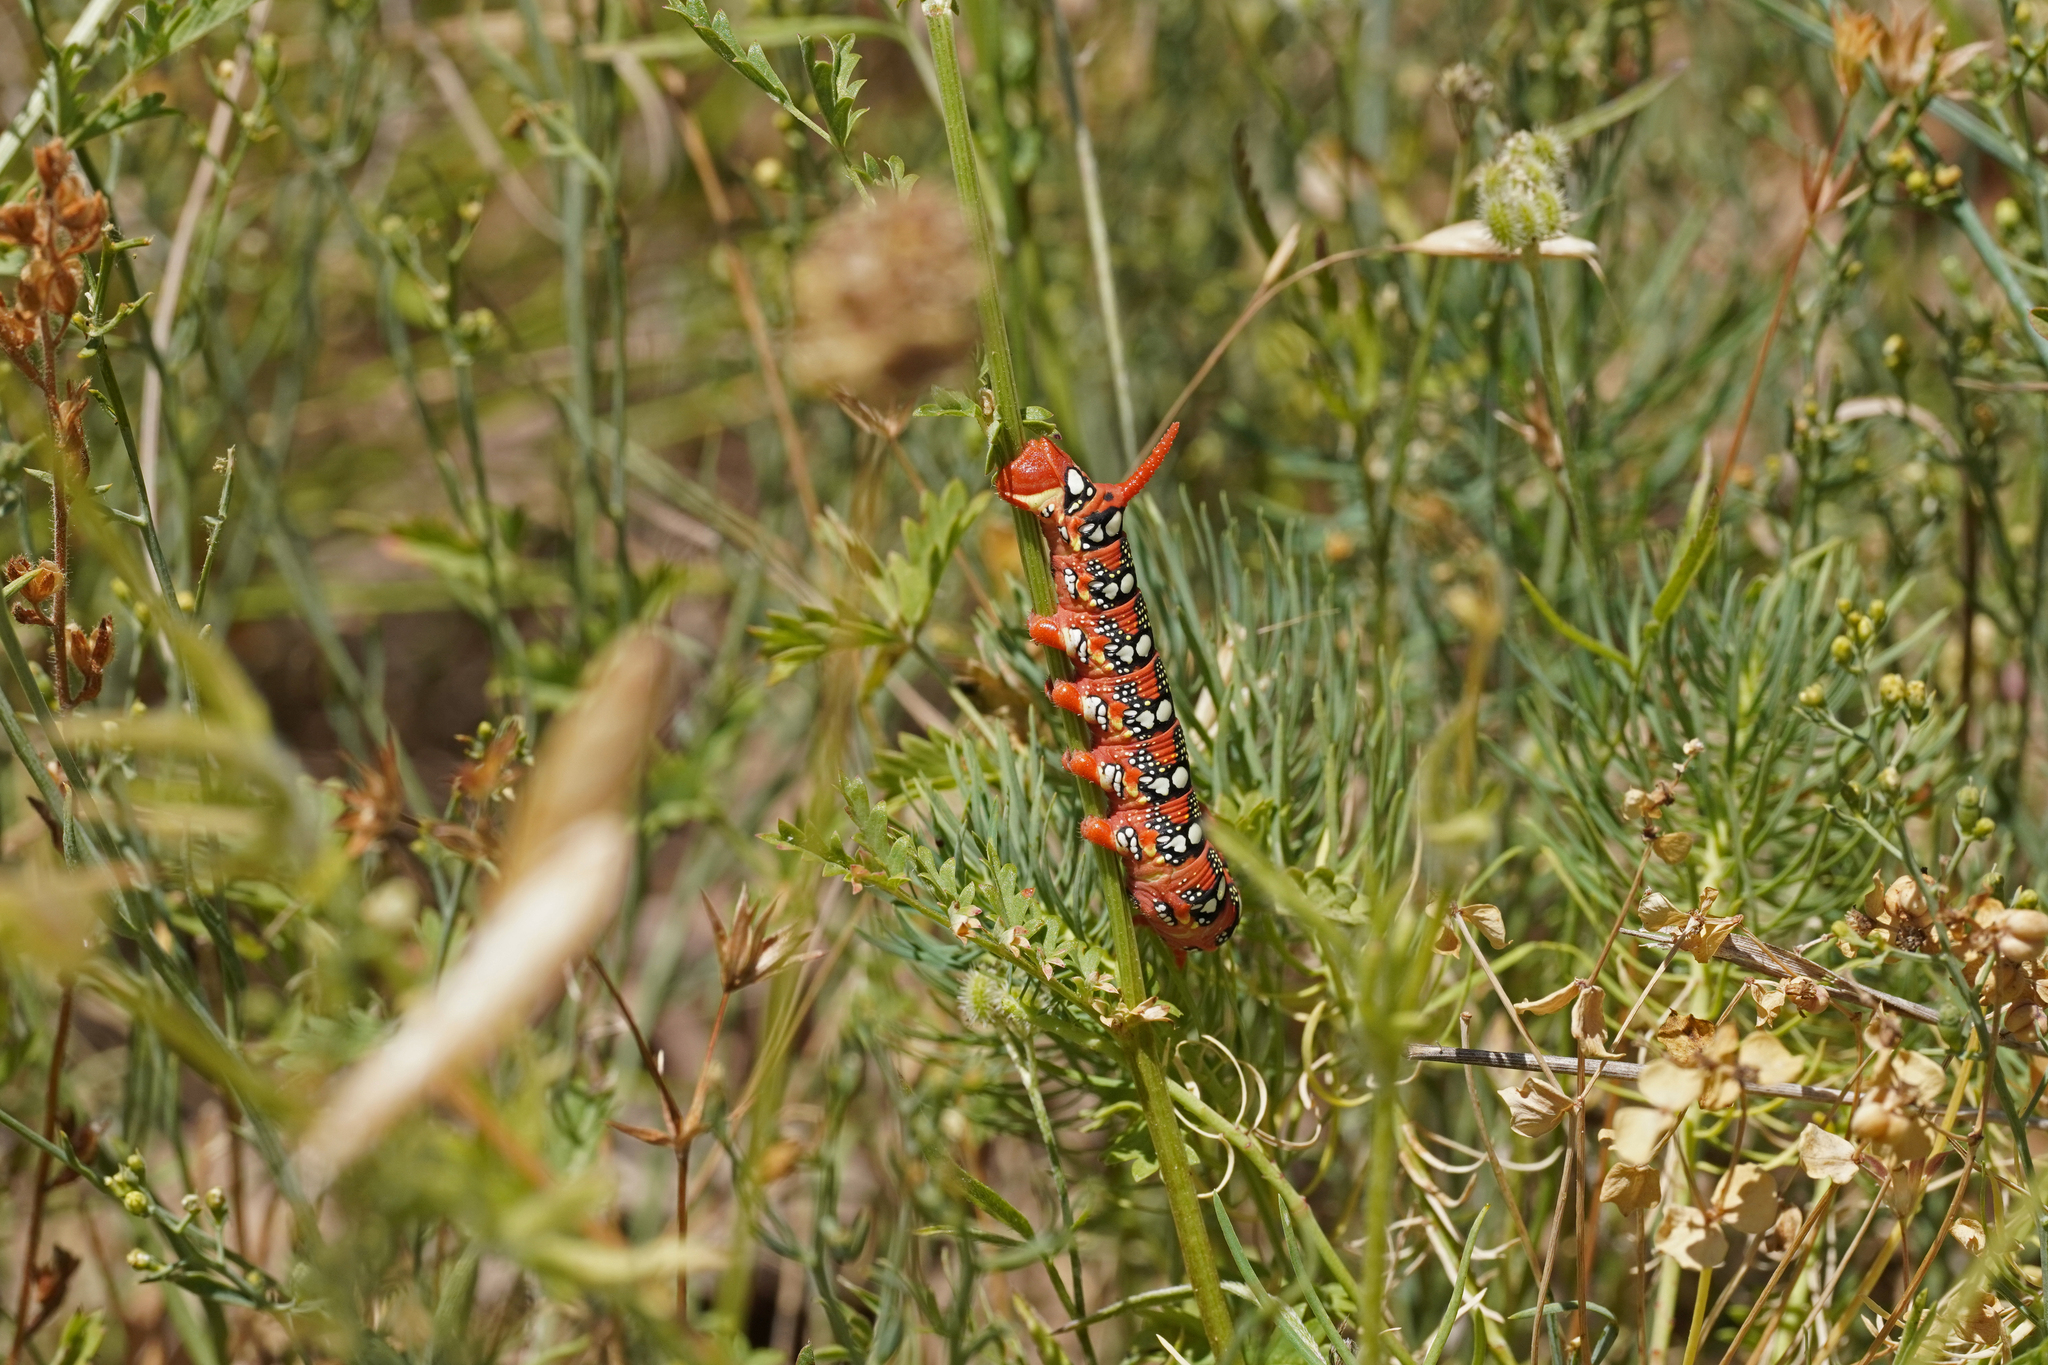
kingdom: Animalia
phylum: Arthropoda
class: Insecta
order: Lepidoptera
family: Sphingidae
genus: Hyles
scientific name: Hyles euphorbiae
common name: Spurge hawk-moth
